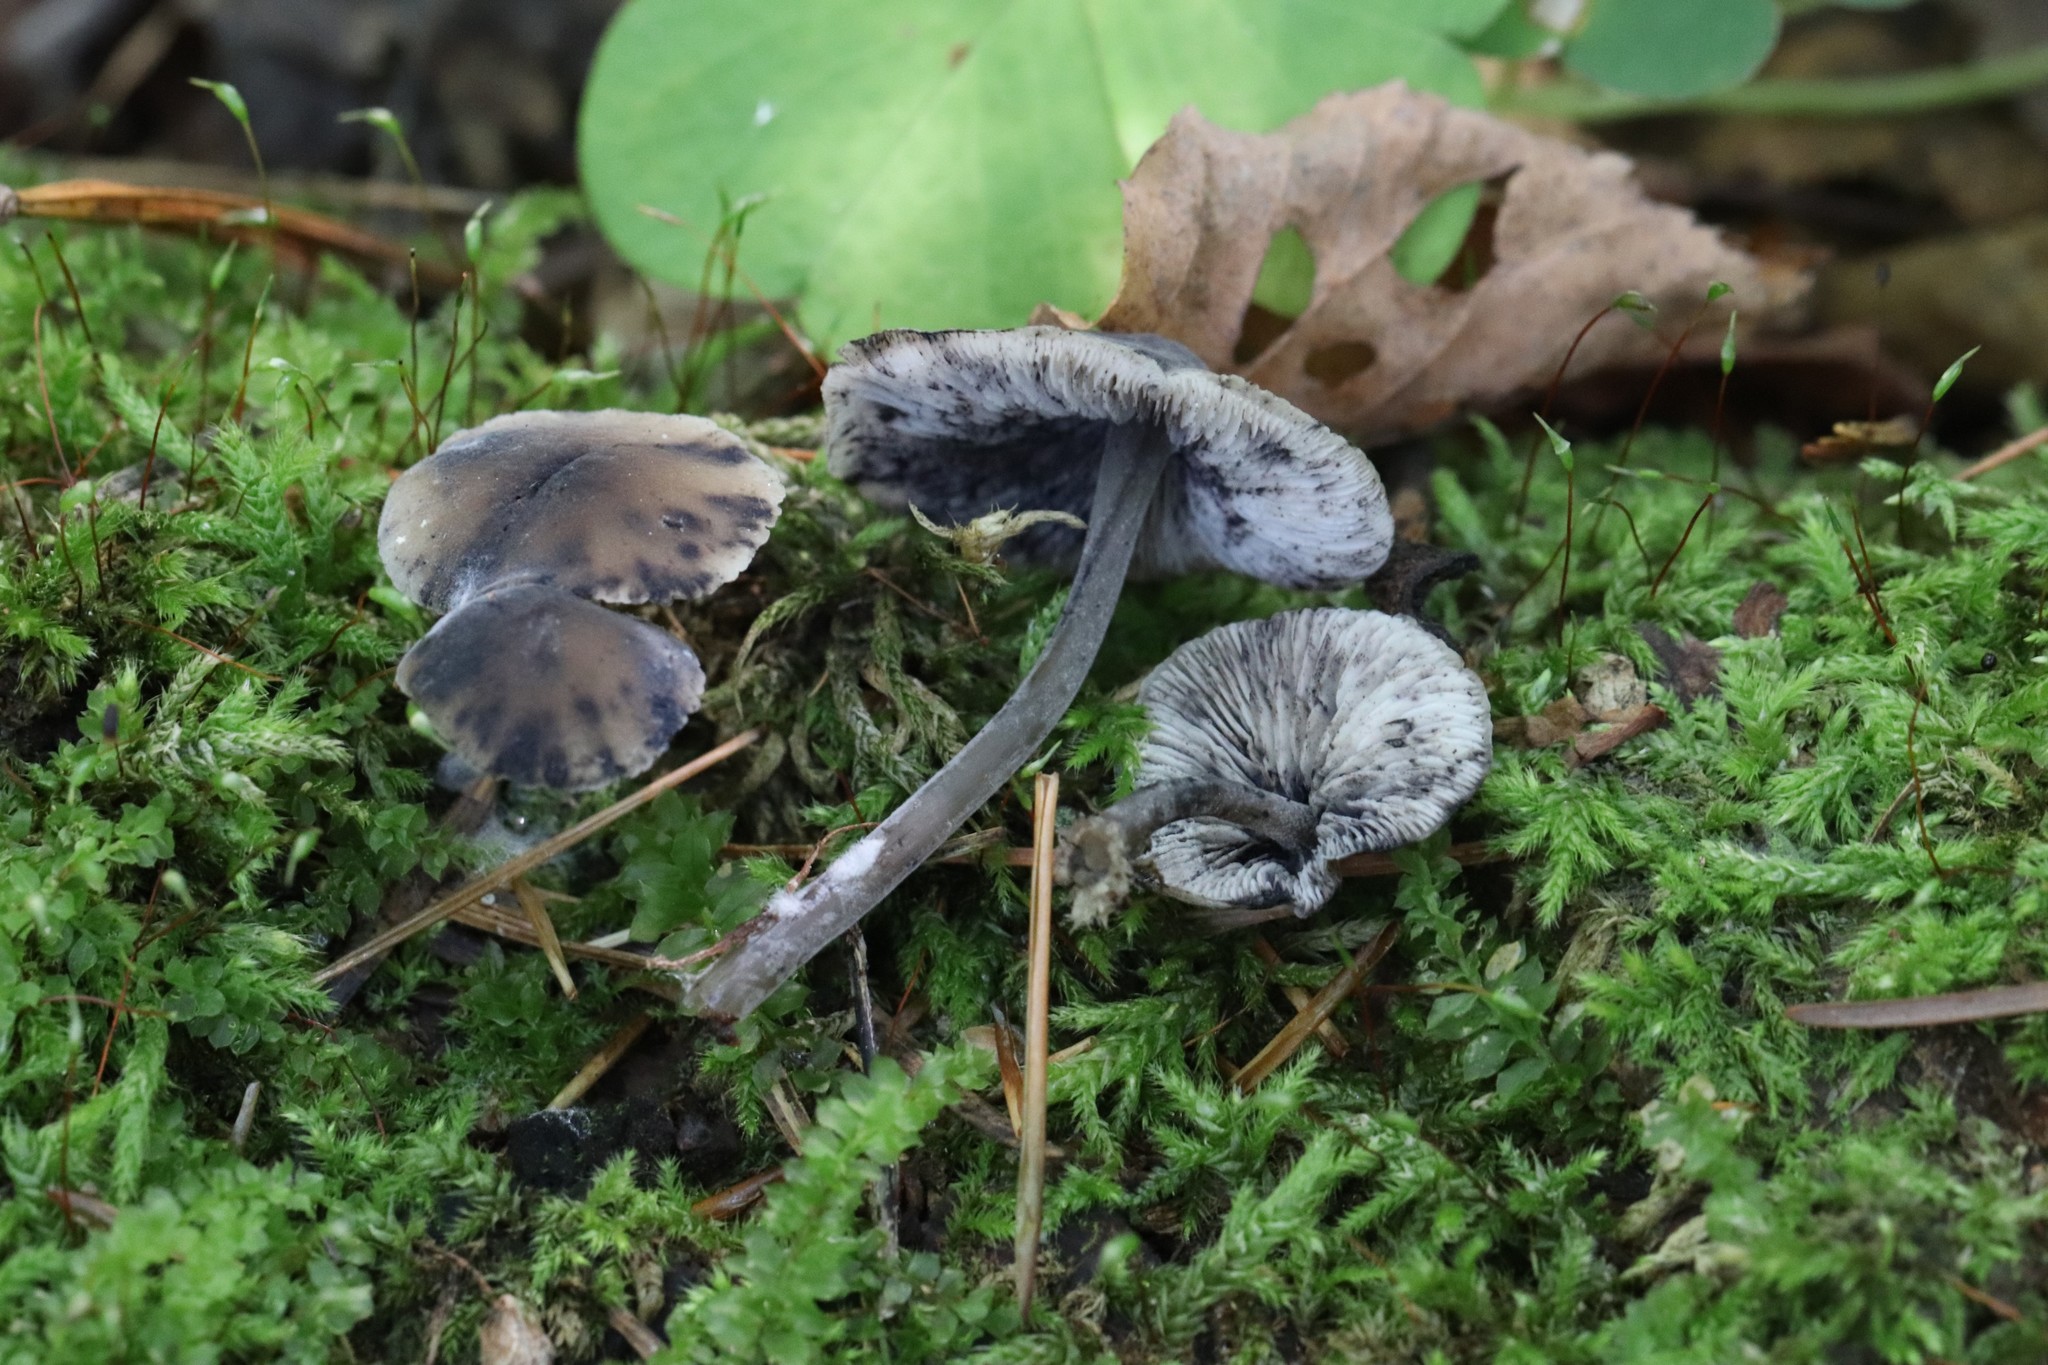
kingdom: Fungi
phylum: Basidiomycota
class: Agaricomycetes
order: Agaricales
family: Mycenaceae
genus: Hydropus
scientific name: Hydropus atramentosus
